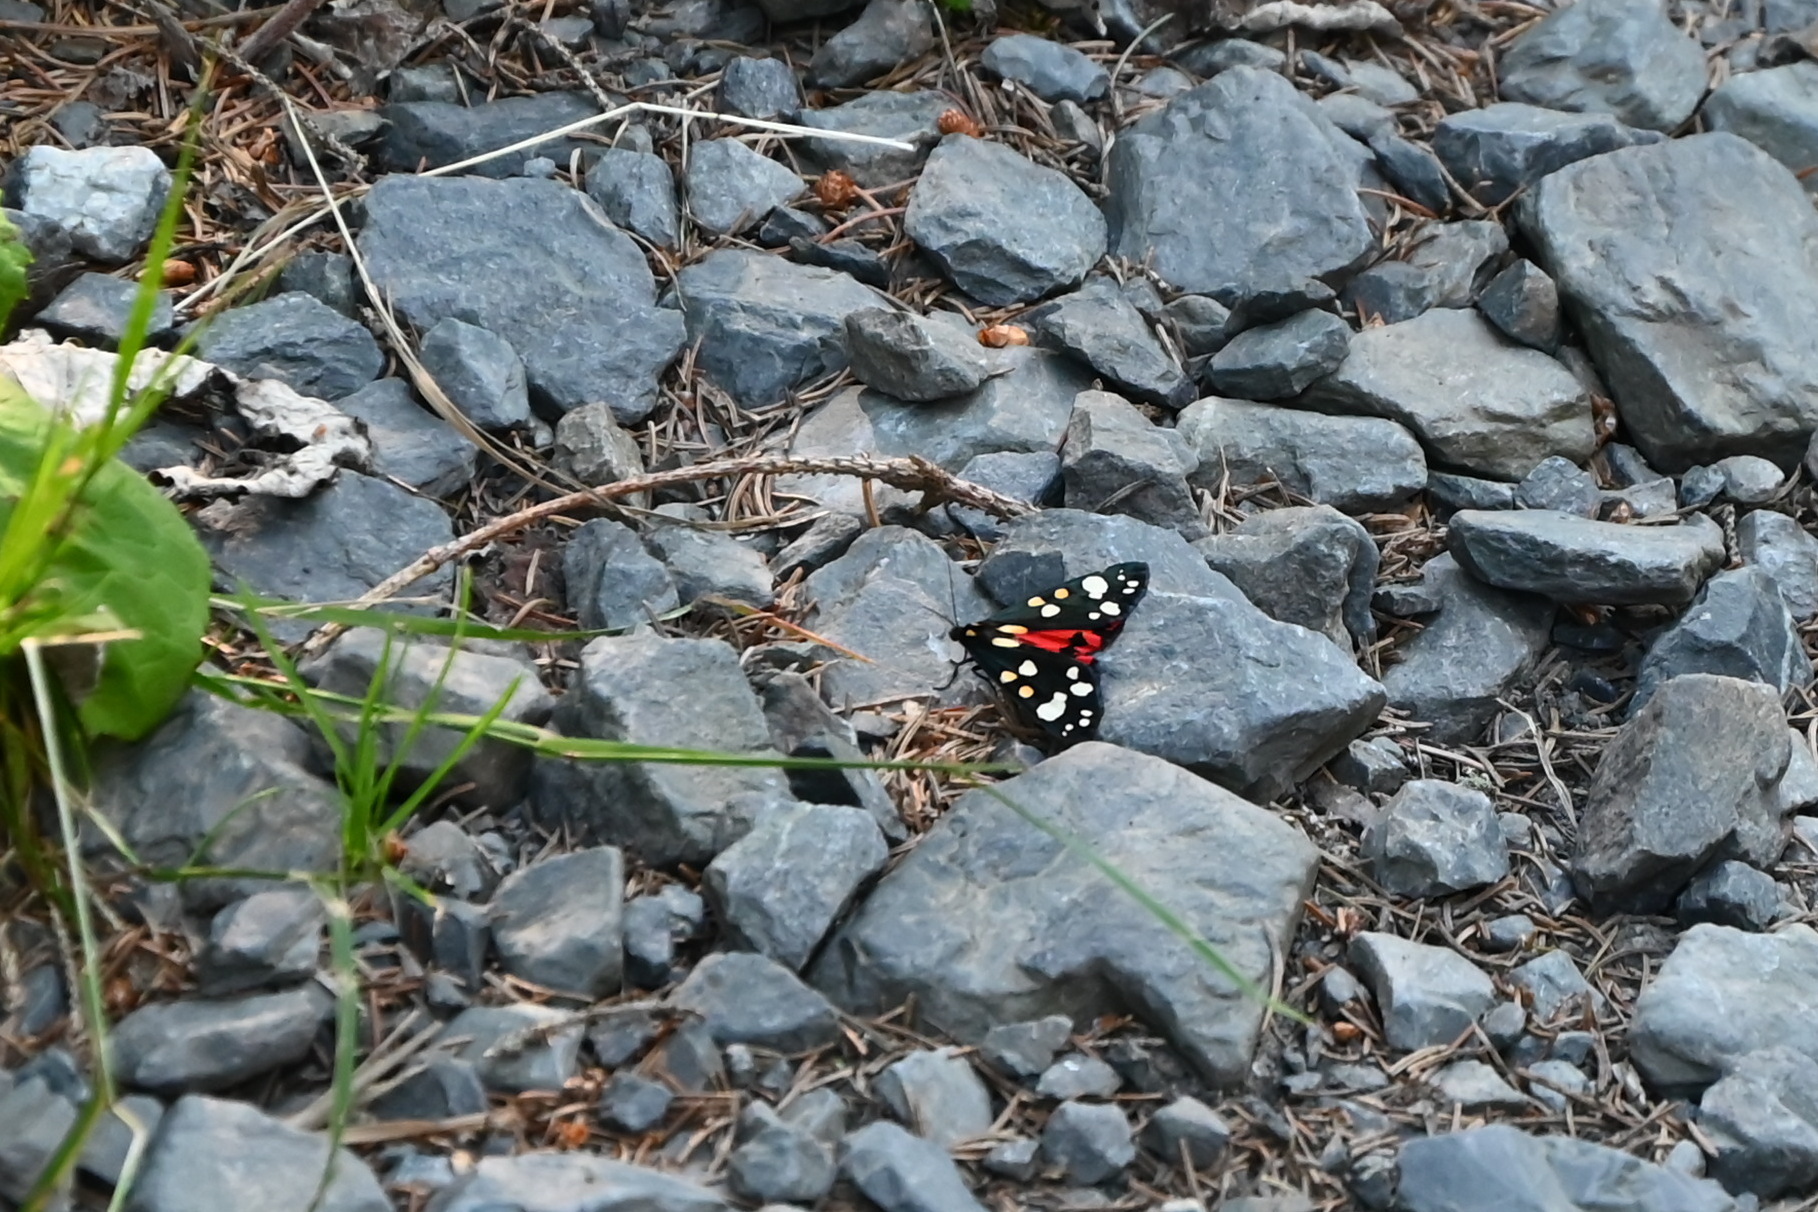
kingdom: Animalia
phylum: Arthropoda
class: Insecta
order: Lepidoptera
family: Erebidae
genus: Callimorpha
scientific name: Callimorpha dominula
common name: Scarlet tiger
